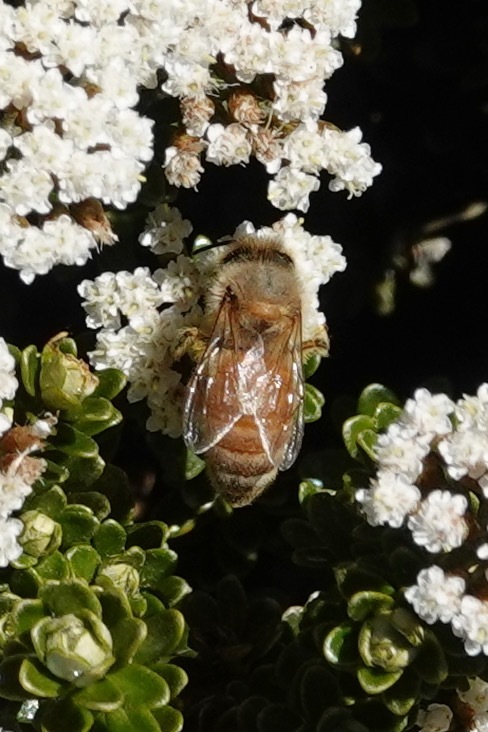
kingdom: Animalia
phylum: Arthropoda
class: Insecta
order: Hymenoptera
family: Apidae
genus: Apis
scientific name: Apis mellifera
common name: Honey bee
